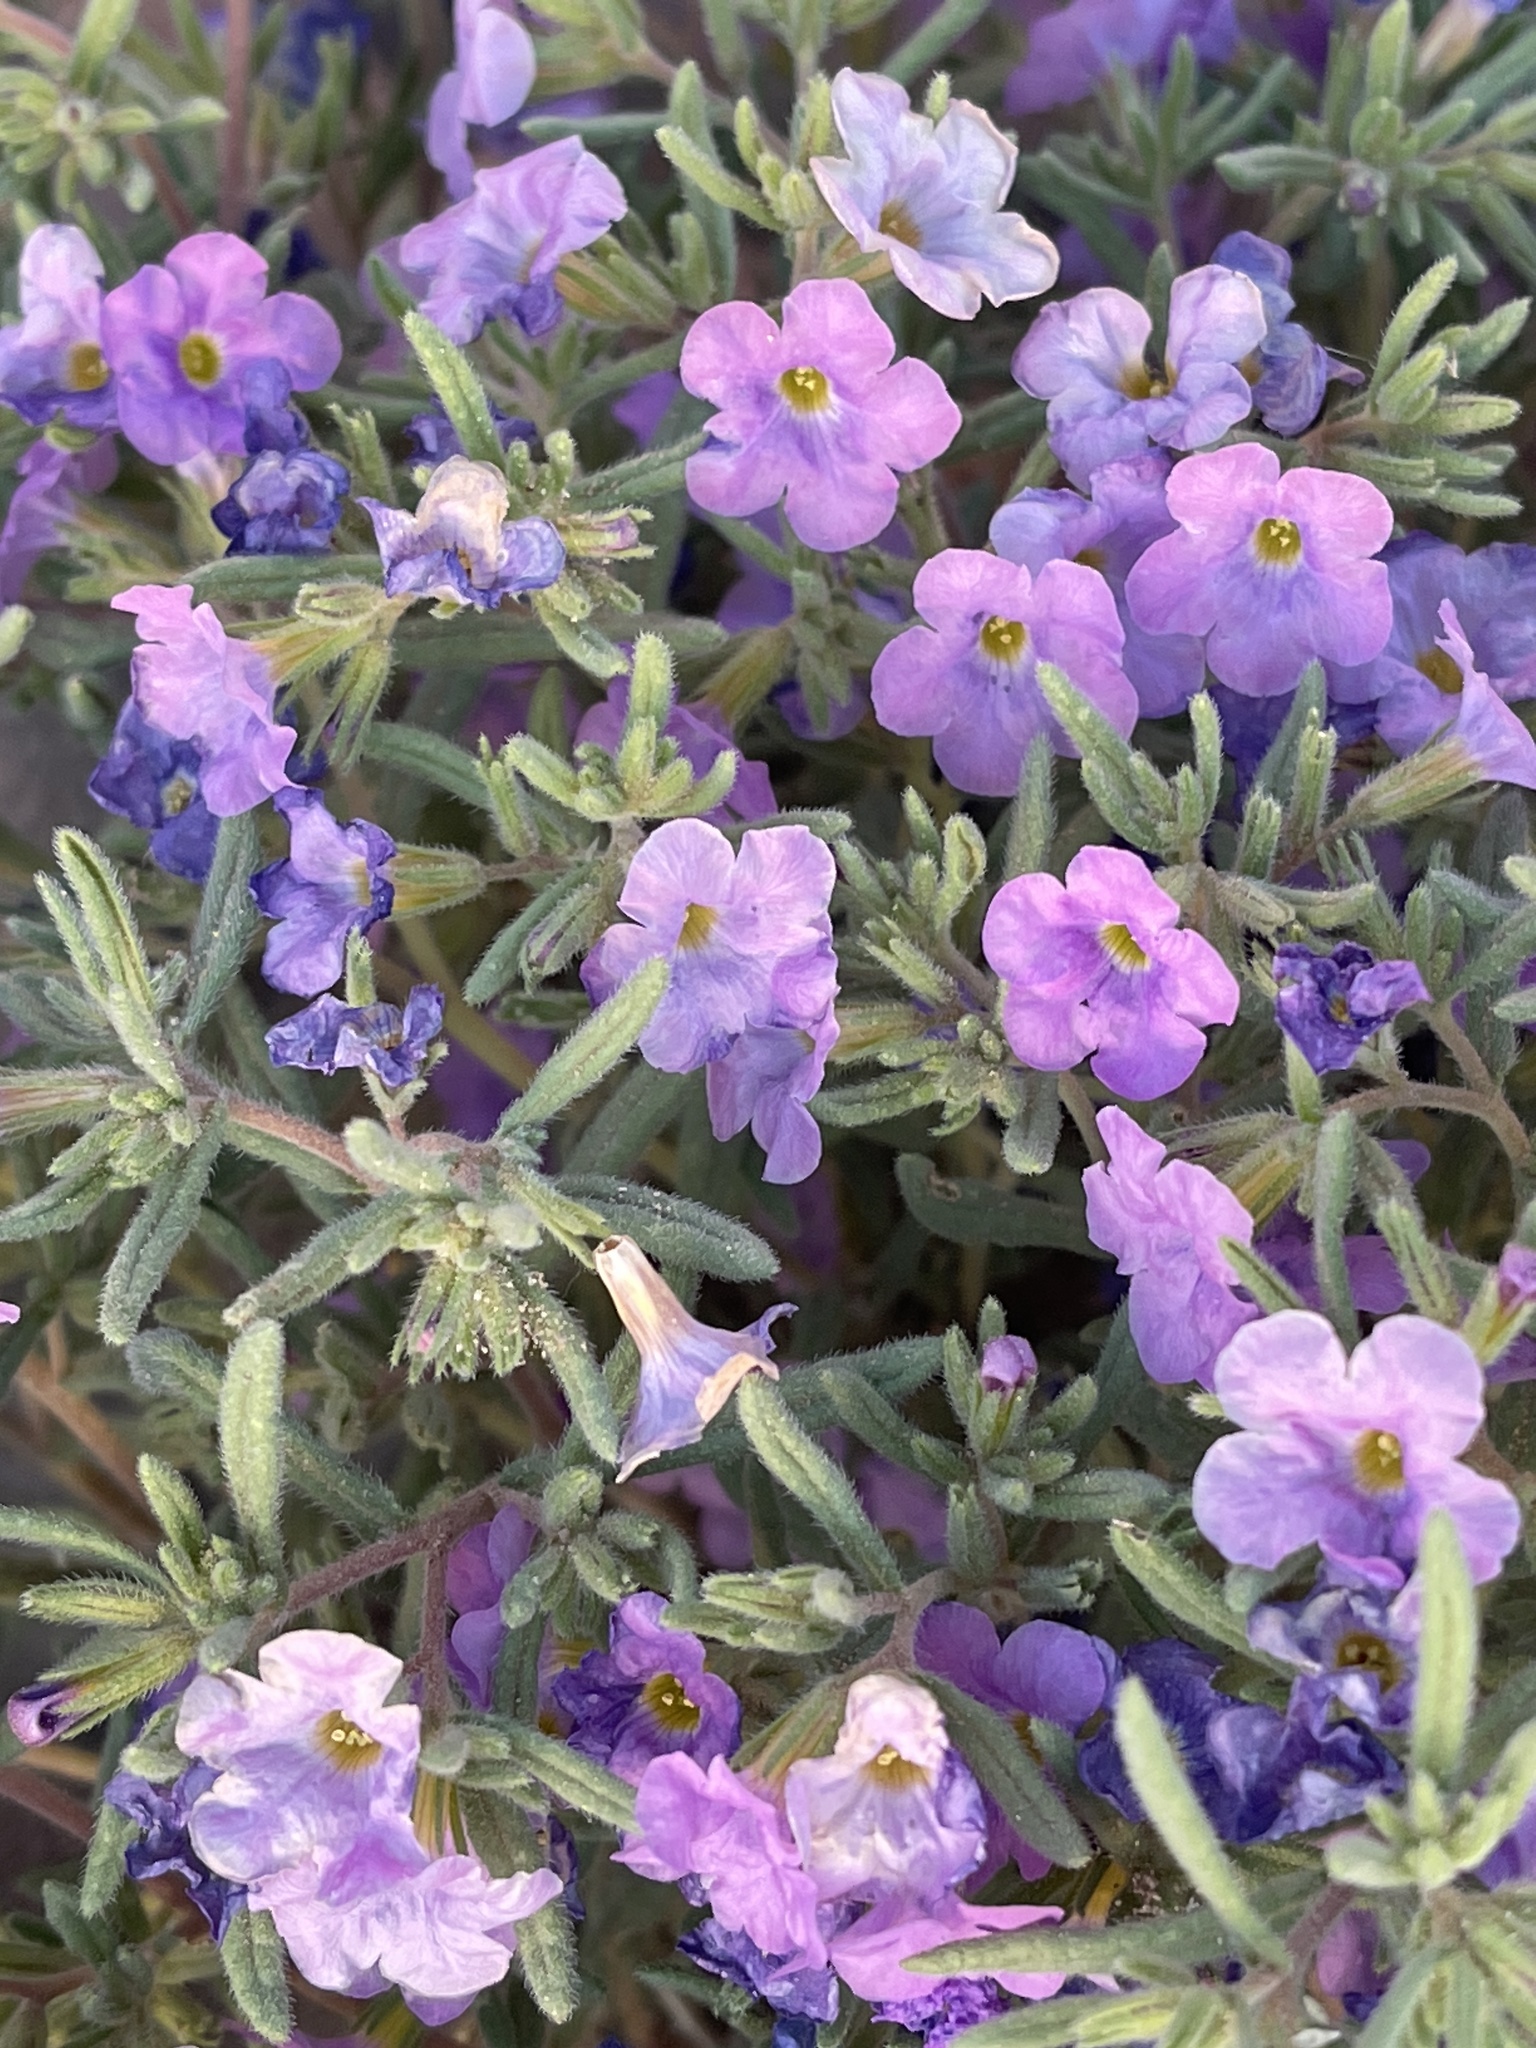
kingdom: Plantae
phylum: Tracheophyta
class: Magnoliopsida
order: Boraginales
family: Namaceae
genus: Nama
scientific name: Nama hispida
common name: Bristly nama
